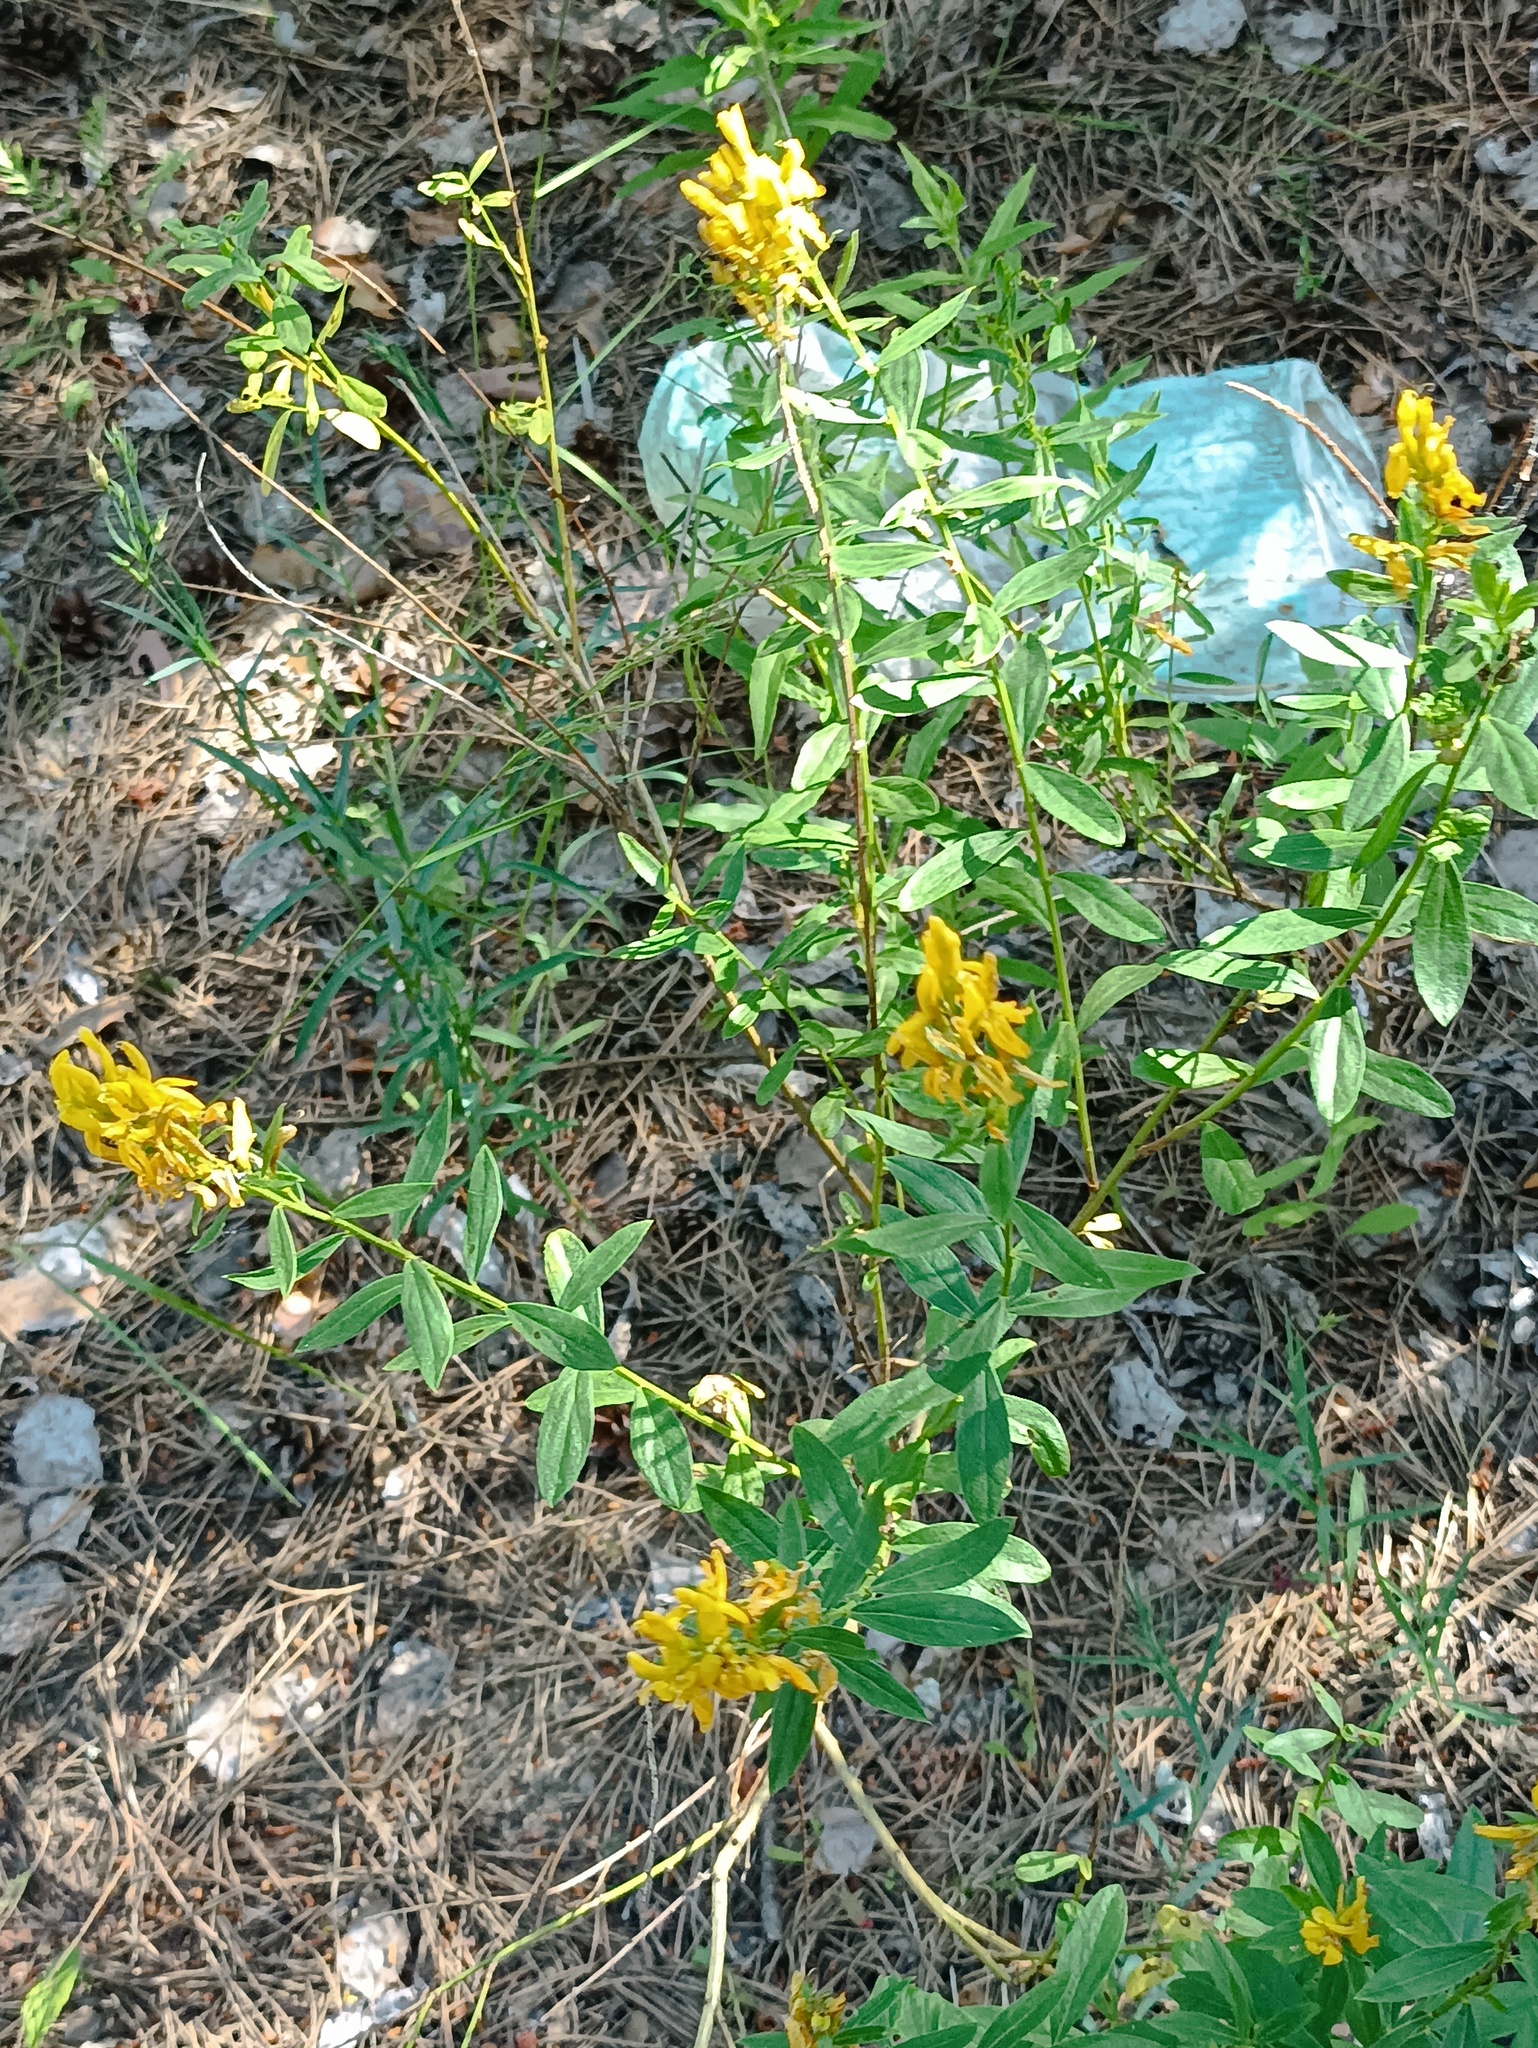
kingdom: Plantae
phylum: Tracheophyta
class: Magnoliopsida
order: Fabales
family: Fabaceae
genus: Genista
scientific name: Genista tinctoria
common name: Dyer's greenweed
